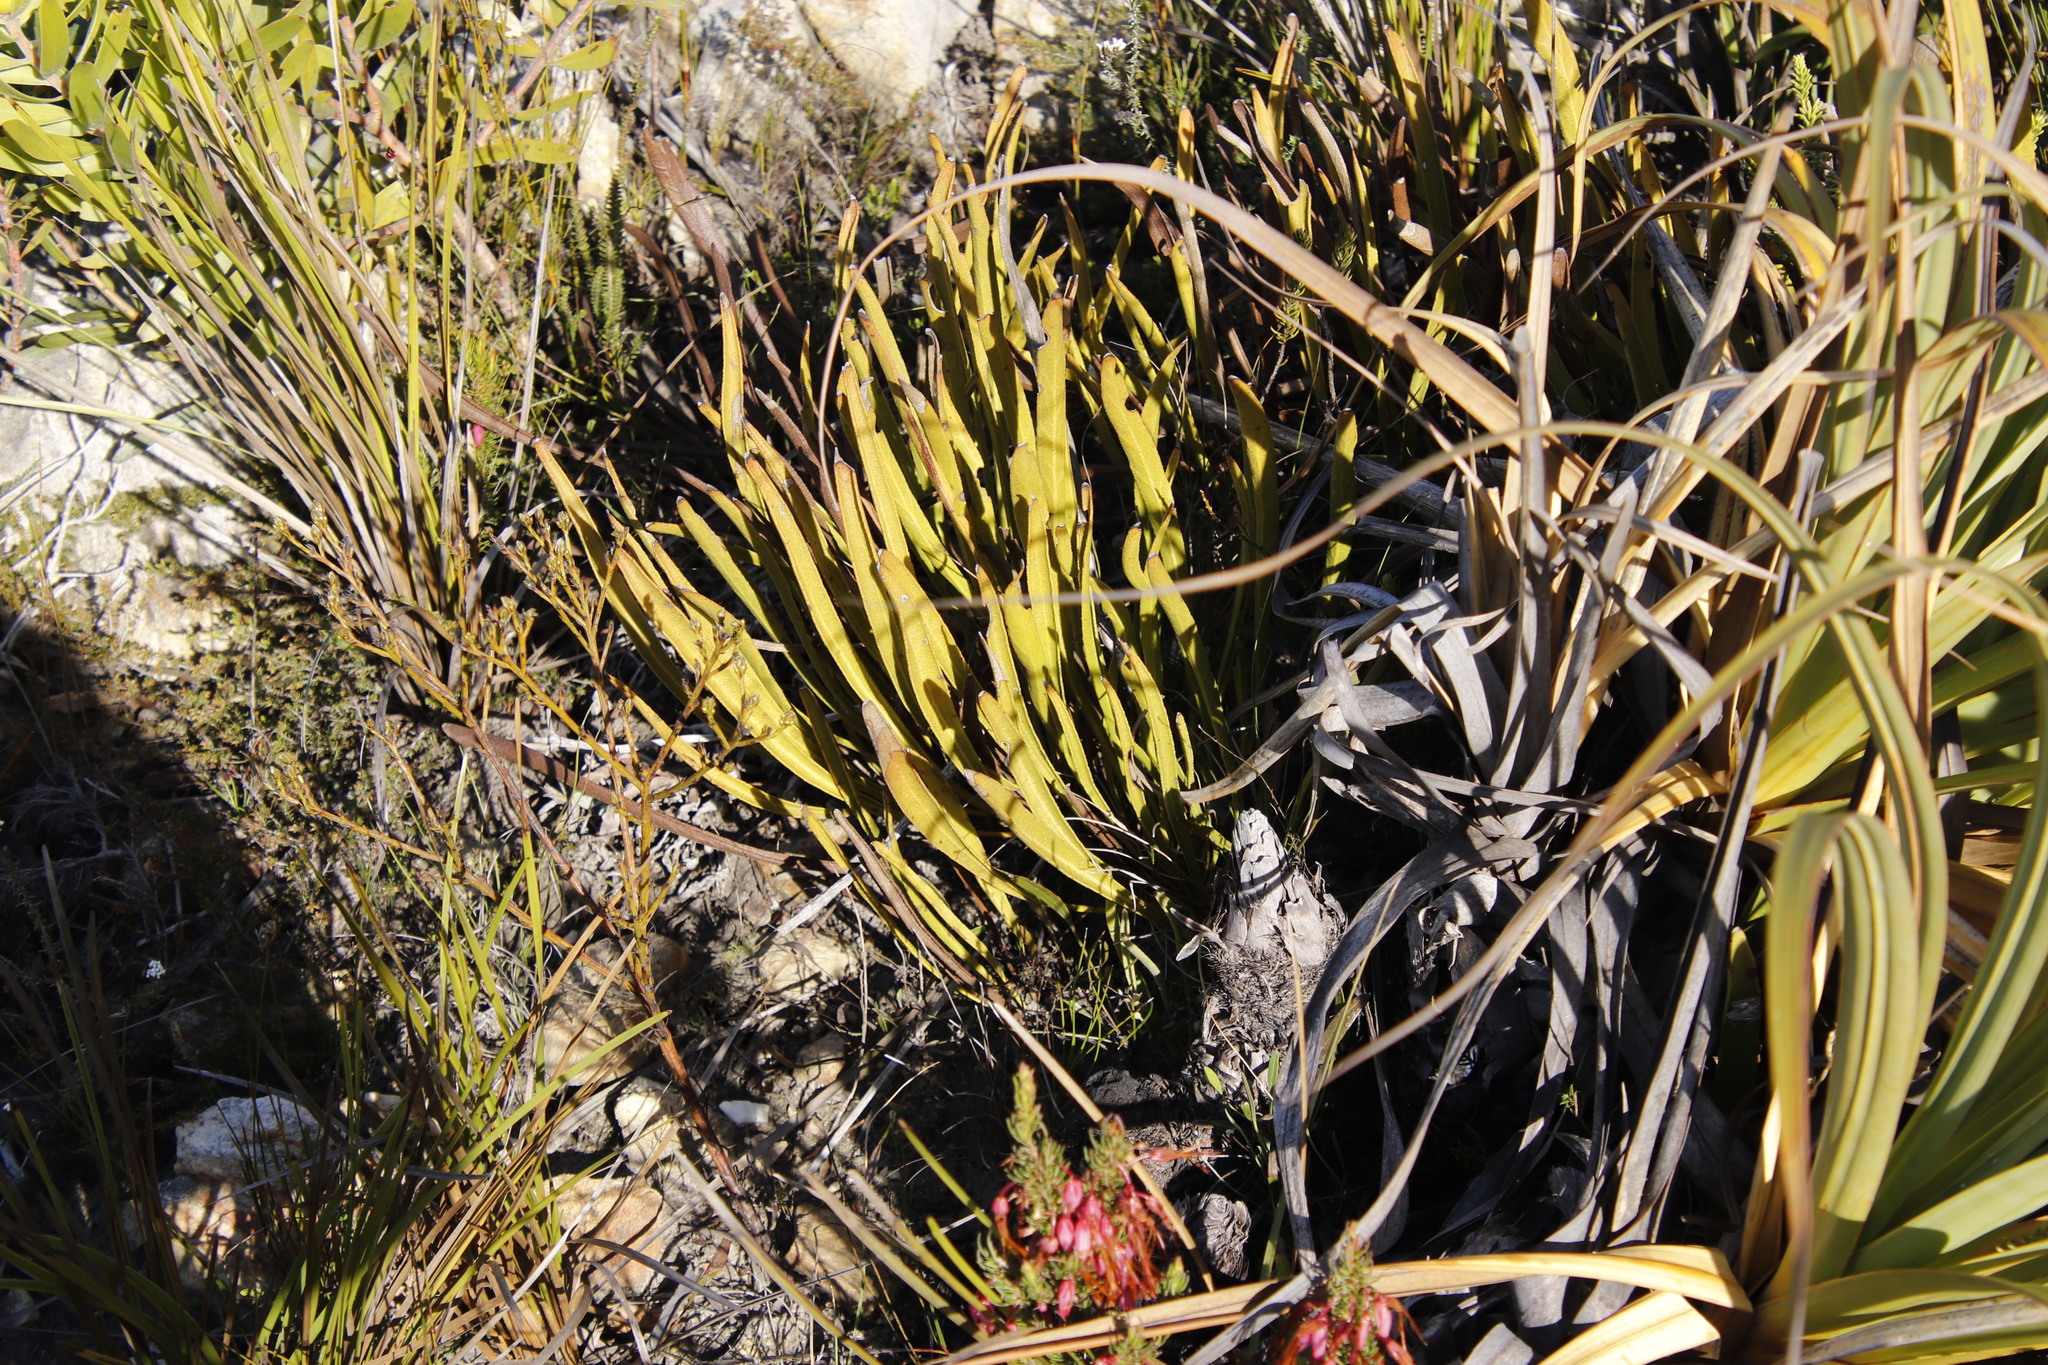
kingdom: Plantae
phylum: Tracheophyta
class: Magnoliopsida
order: Proteales
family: Proteaceae
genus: Protea
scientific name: Protea scabra
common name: Sandpaper-leaf sugarbush
